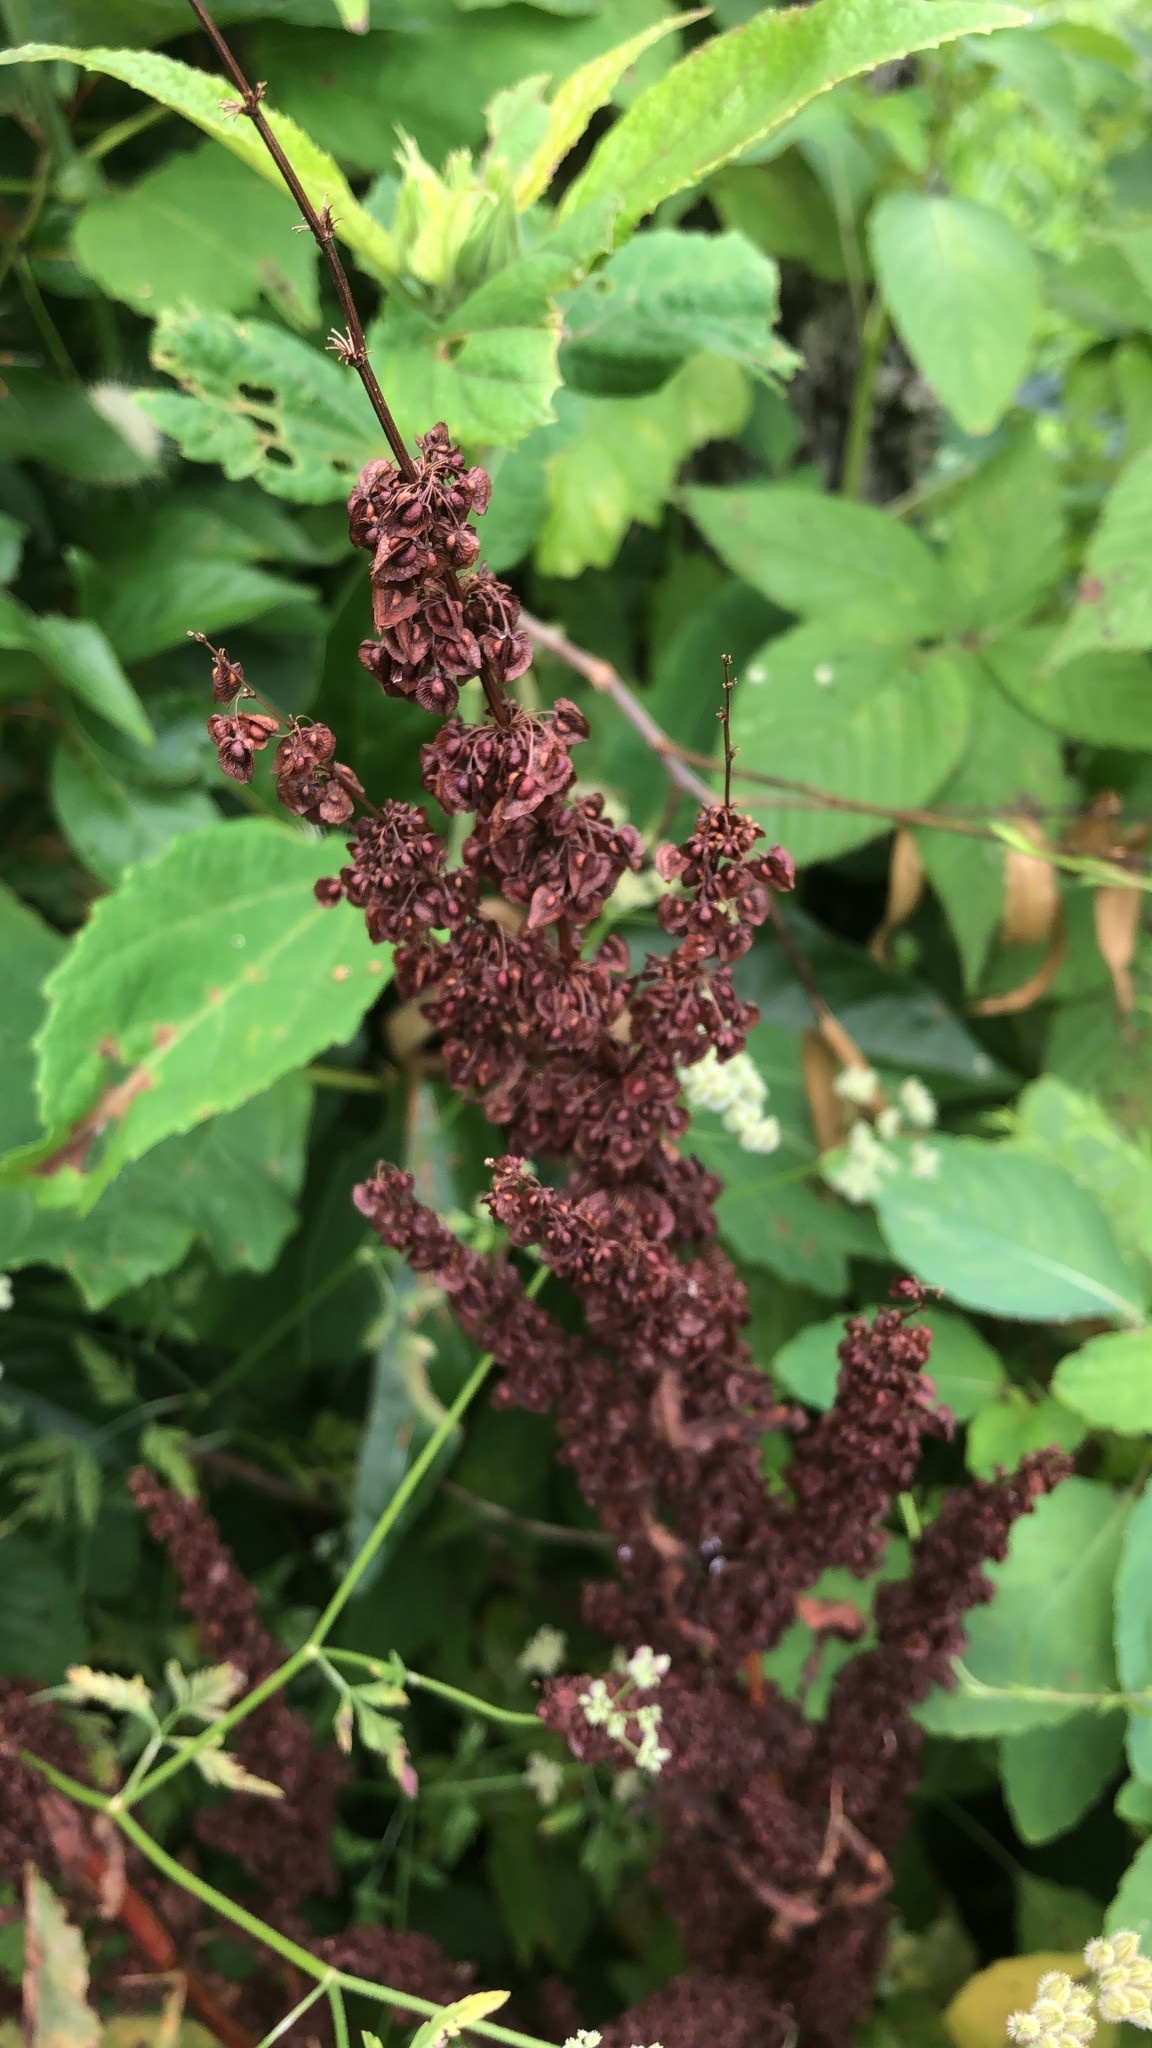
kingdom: Plantae
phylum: Tracheophyta
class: Magnoliopsida
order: Caryophyllales
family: Polygonaceae
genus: Rumex
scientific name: Rumex crispus
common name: Curled dock
